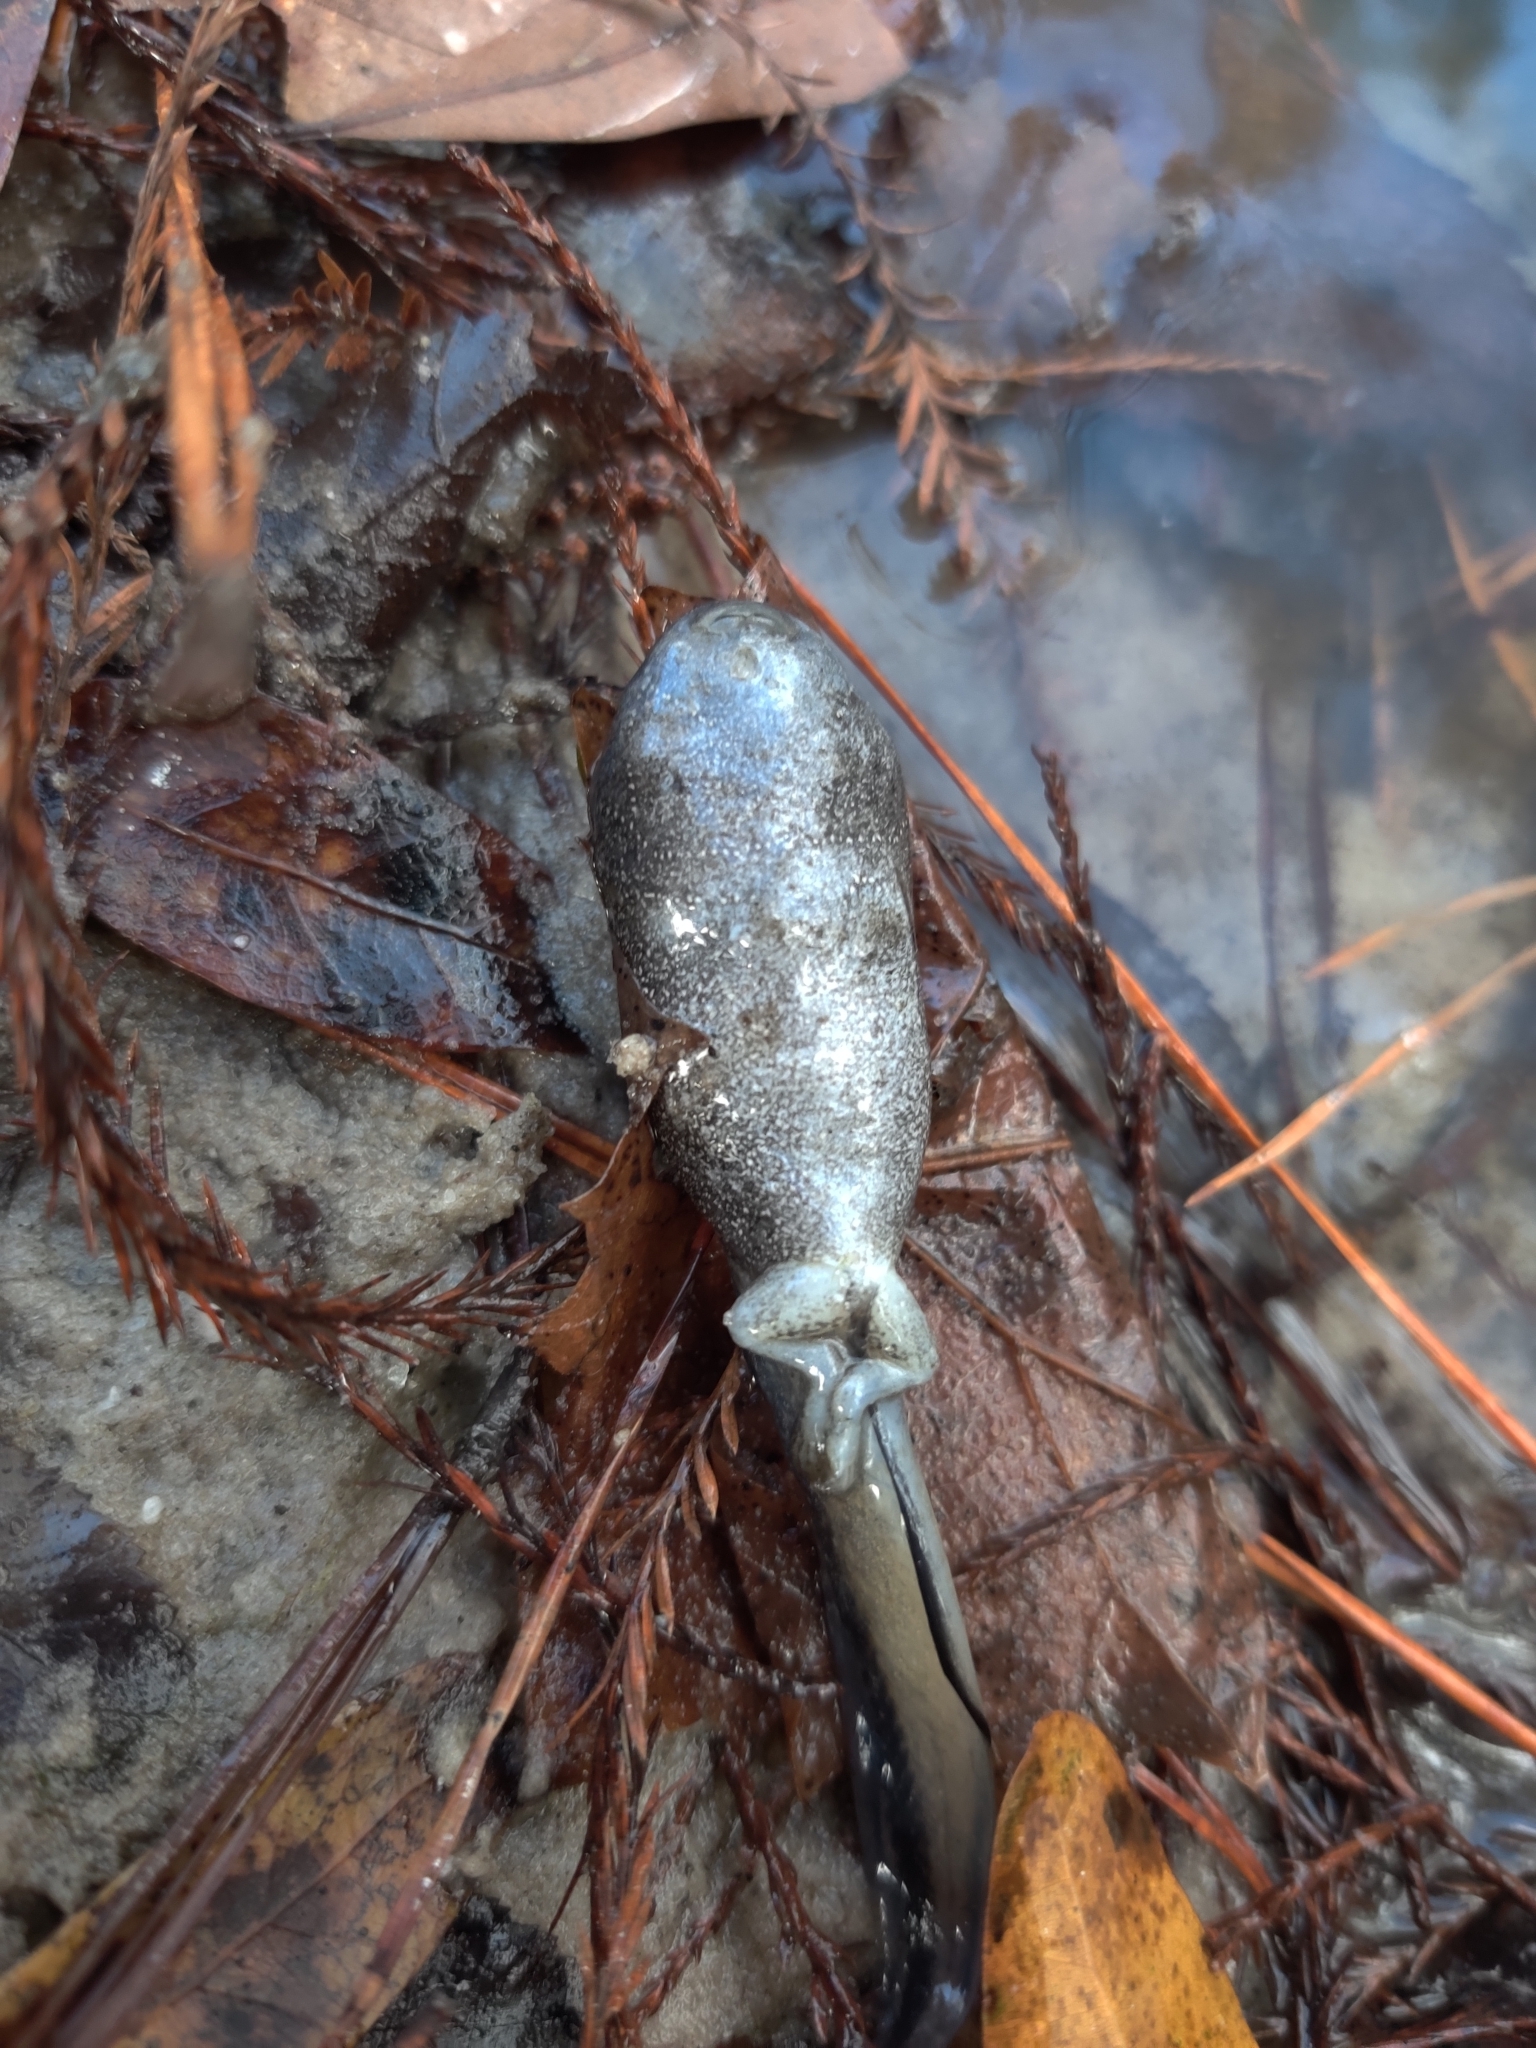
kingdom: Animalia
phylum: Chordata
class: Amphibia
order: Anura
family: Ranidae
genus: Lithobates
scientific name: Lithobates heckscheri
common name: River frog
